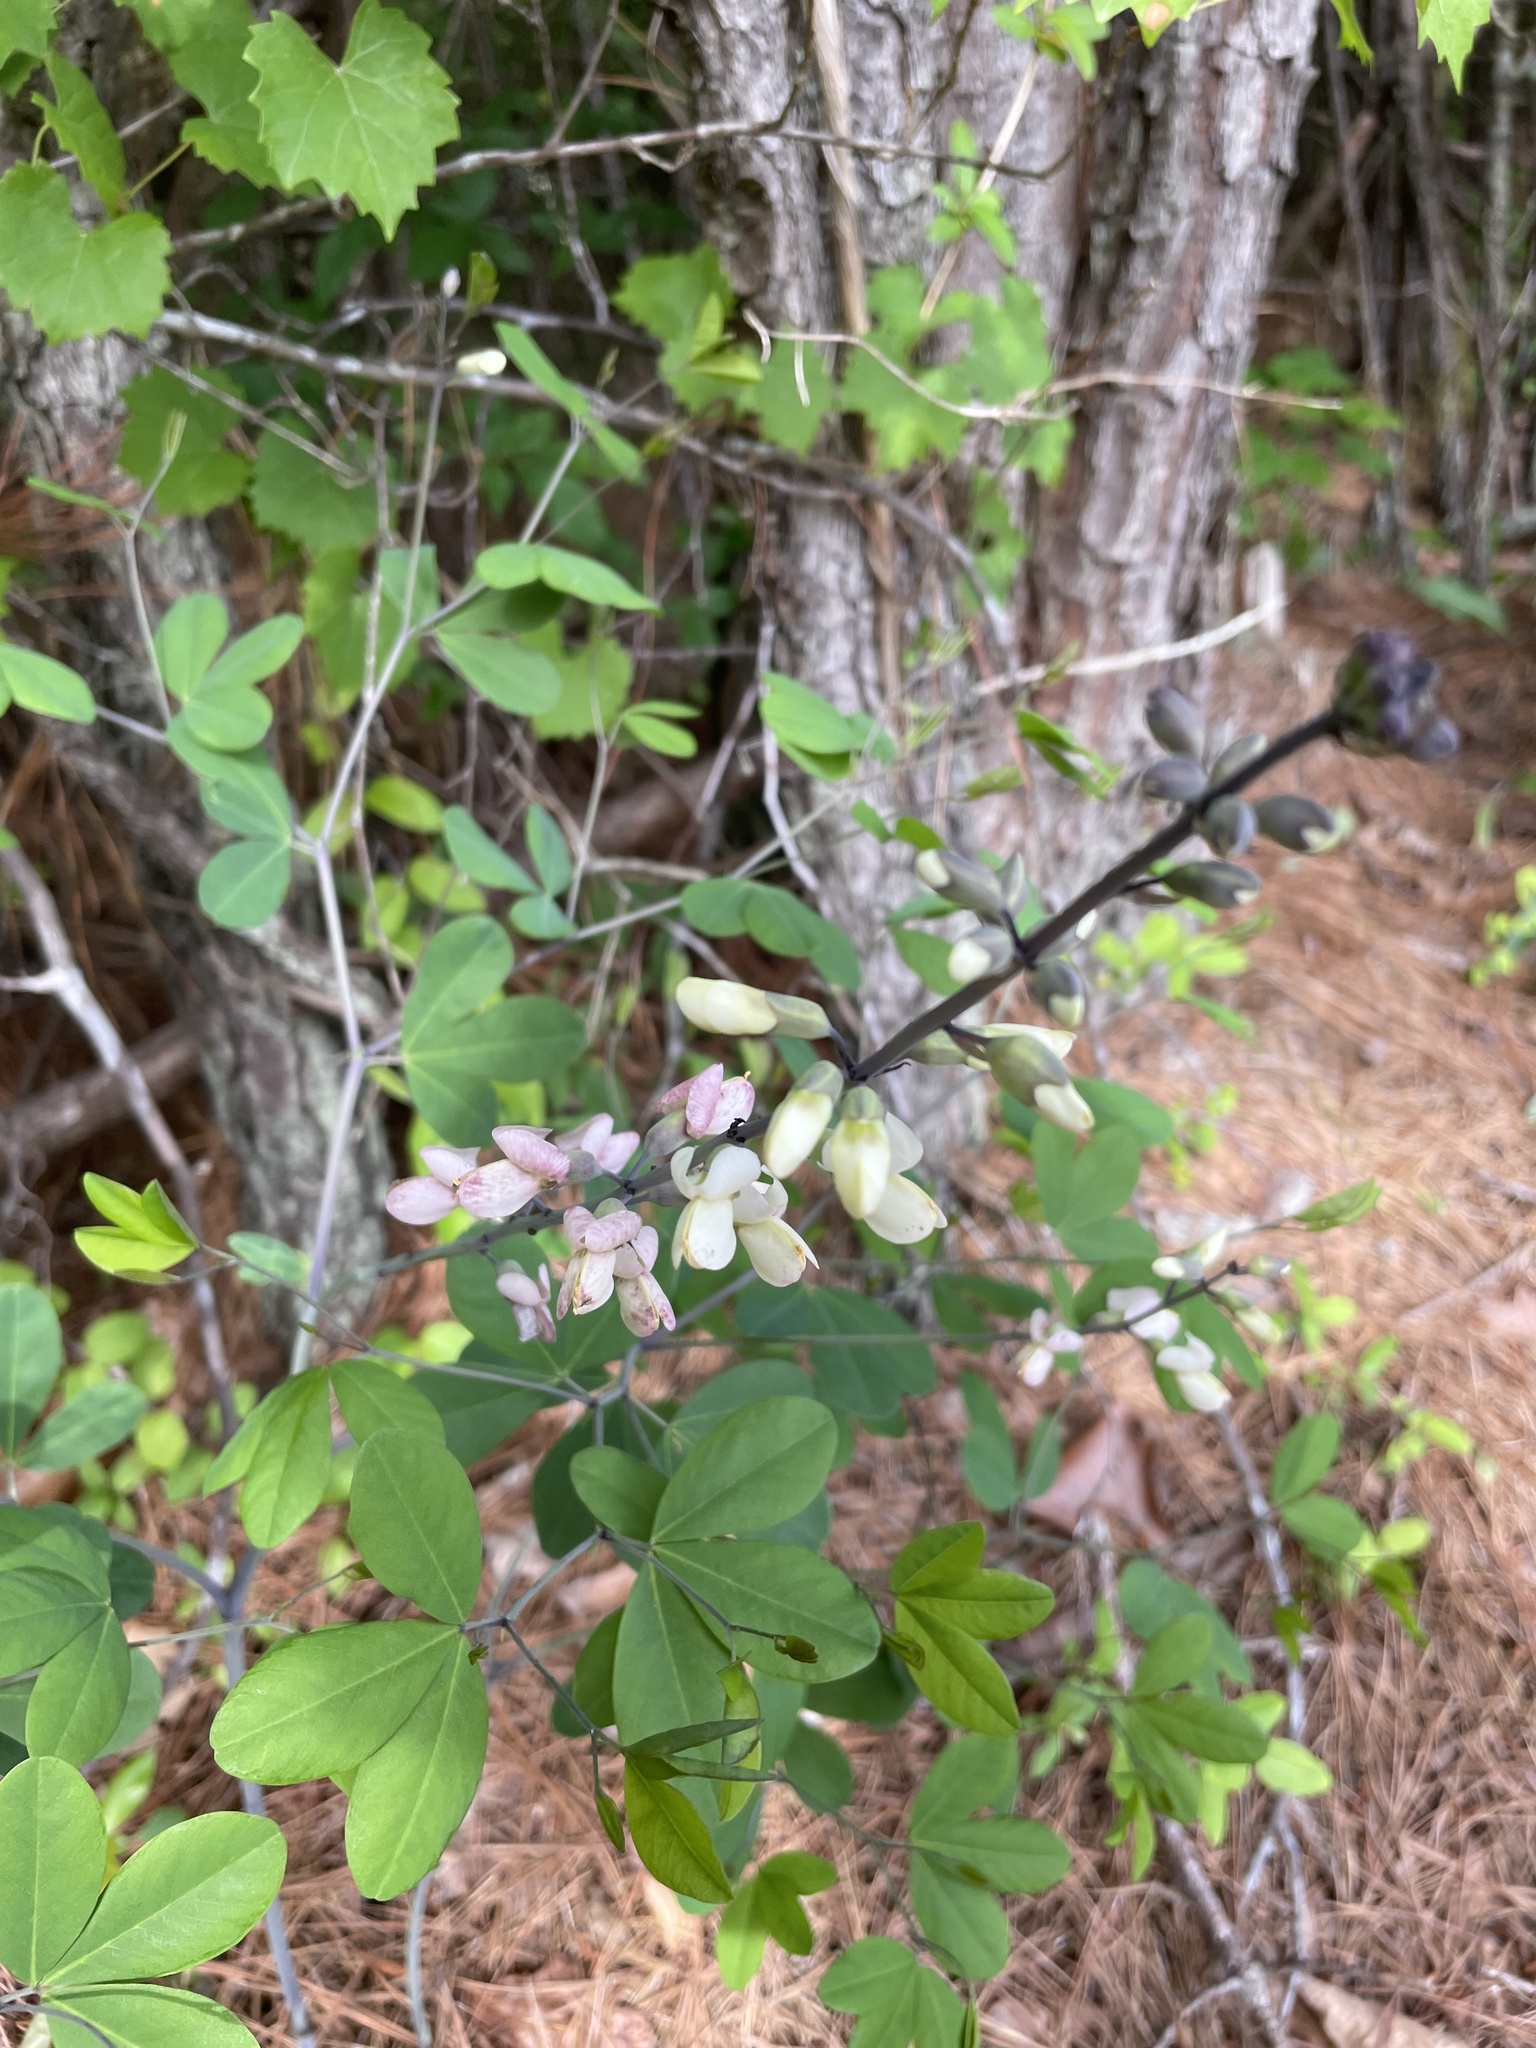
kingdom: Plantae
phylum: Tracheophyta
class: Magnoliopsida
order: Fabales
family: Fabaceae
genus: Baptisia
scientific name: Baptisia alba
